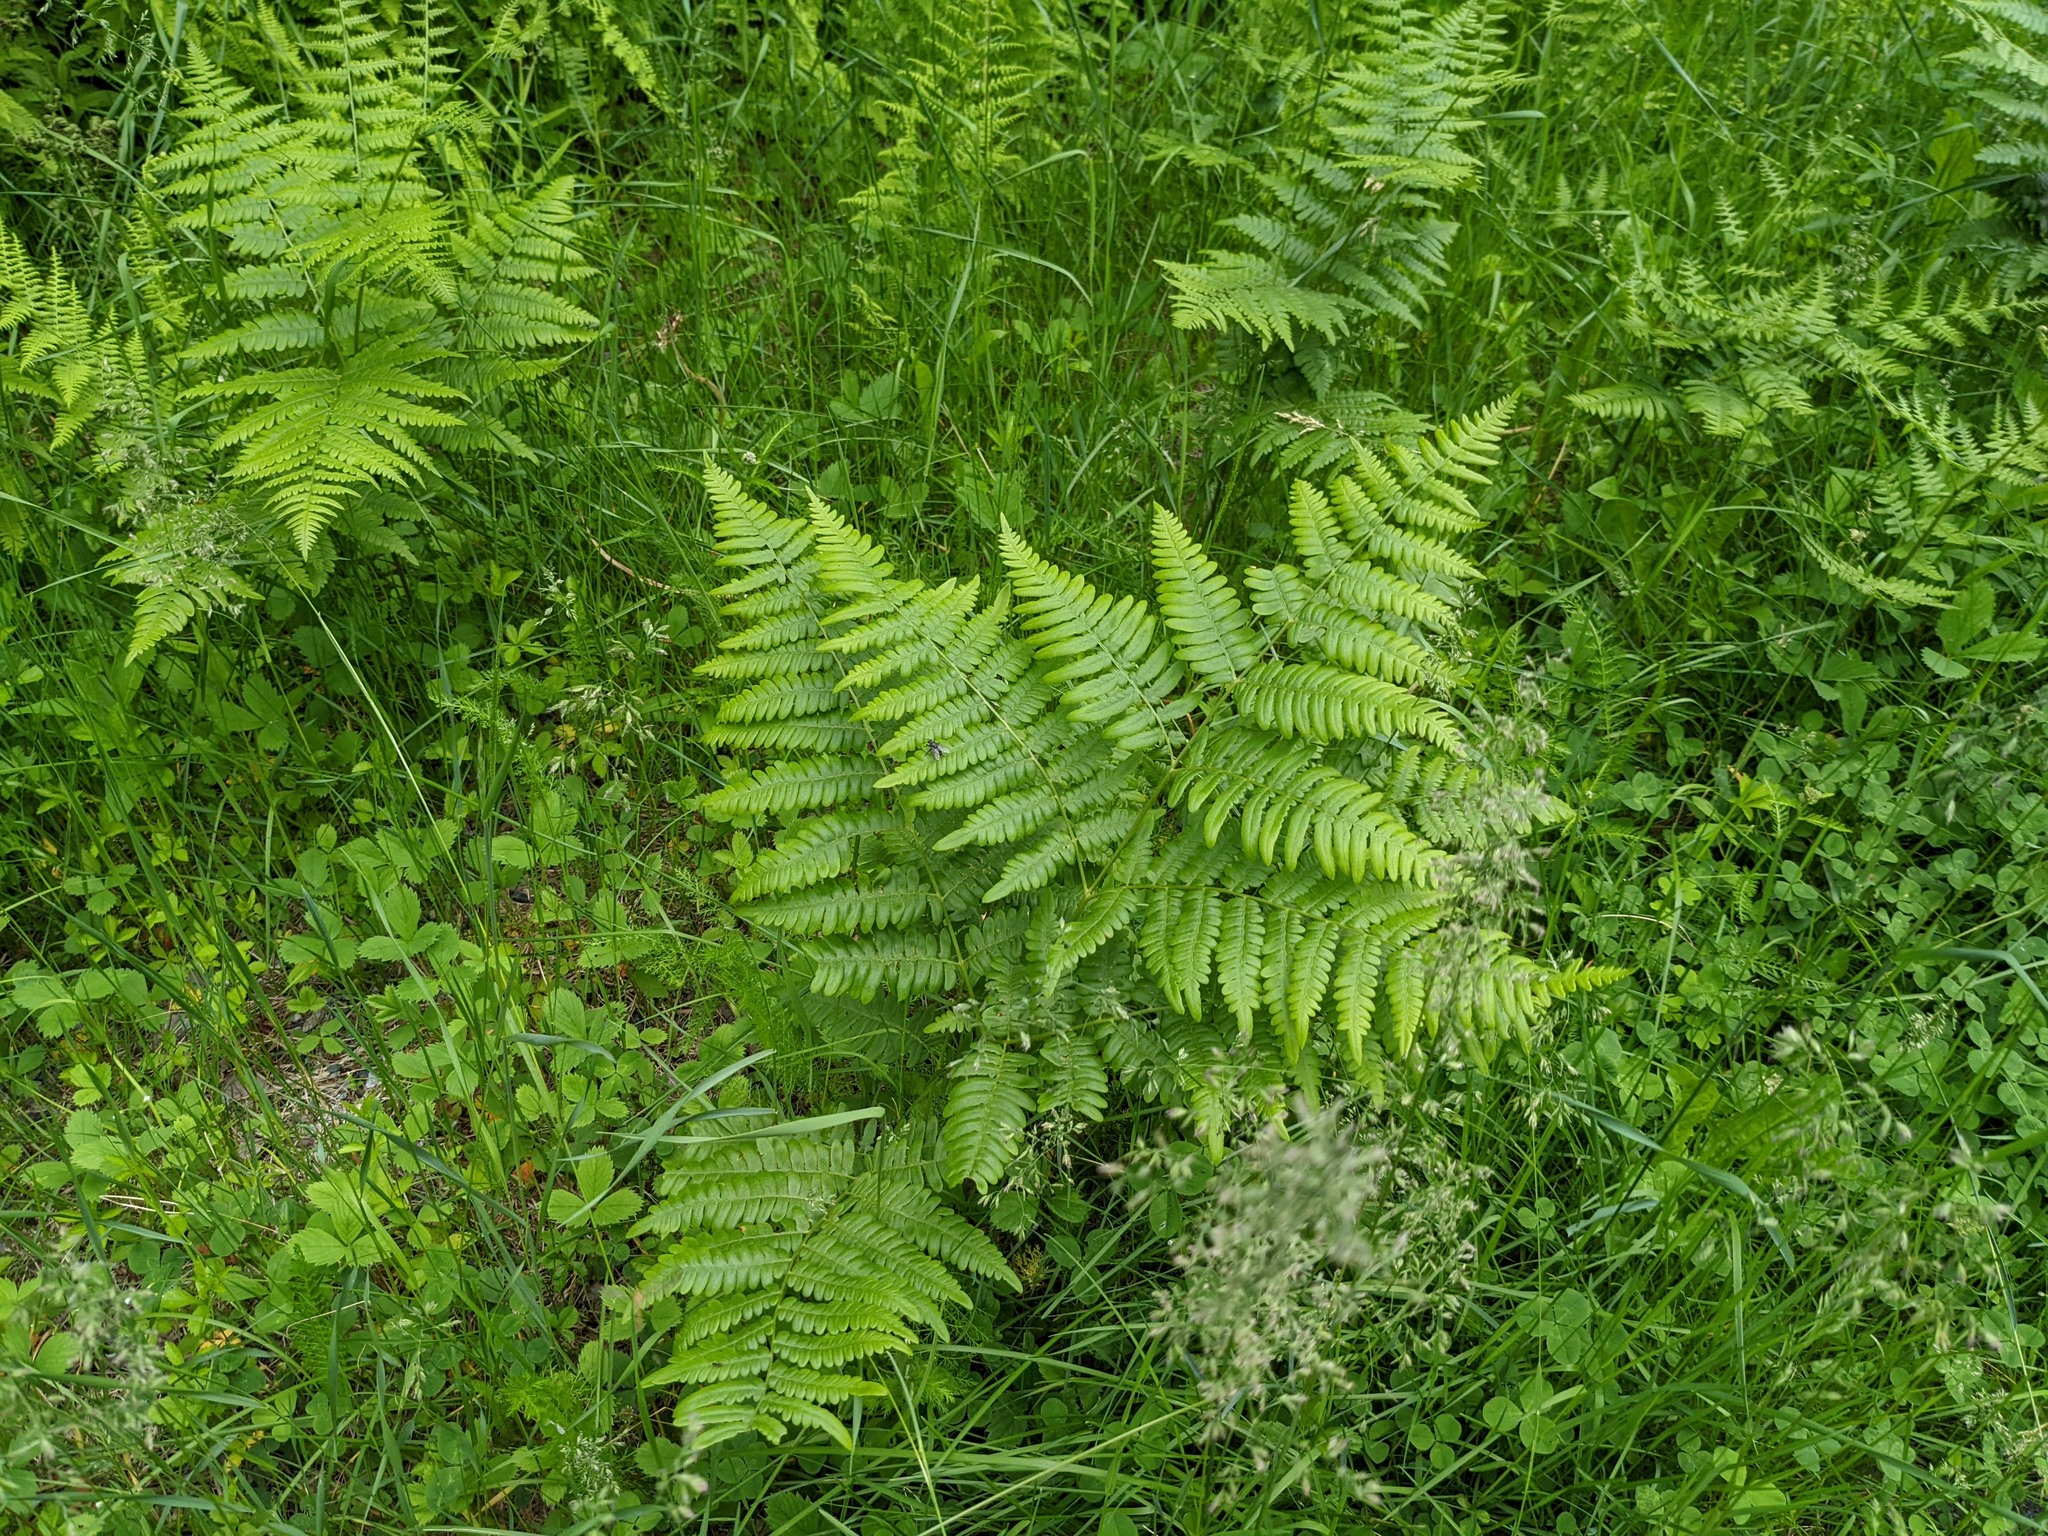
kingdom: Plantae
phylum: Tracheophyta
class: Polypodiopsida
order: Polypodiales
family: Dennstaedtiaceae
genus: Pteridium
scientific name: Pteridium aquilinum
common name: Bracken
